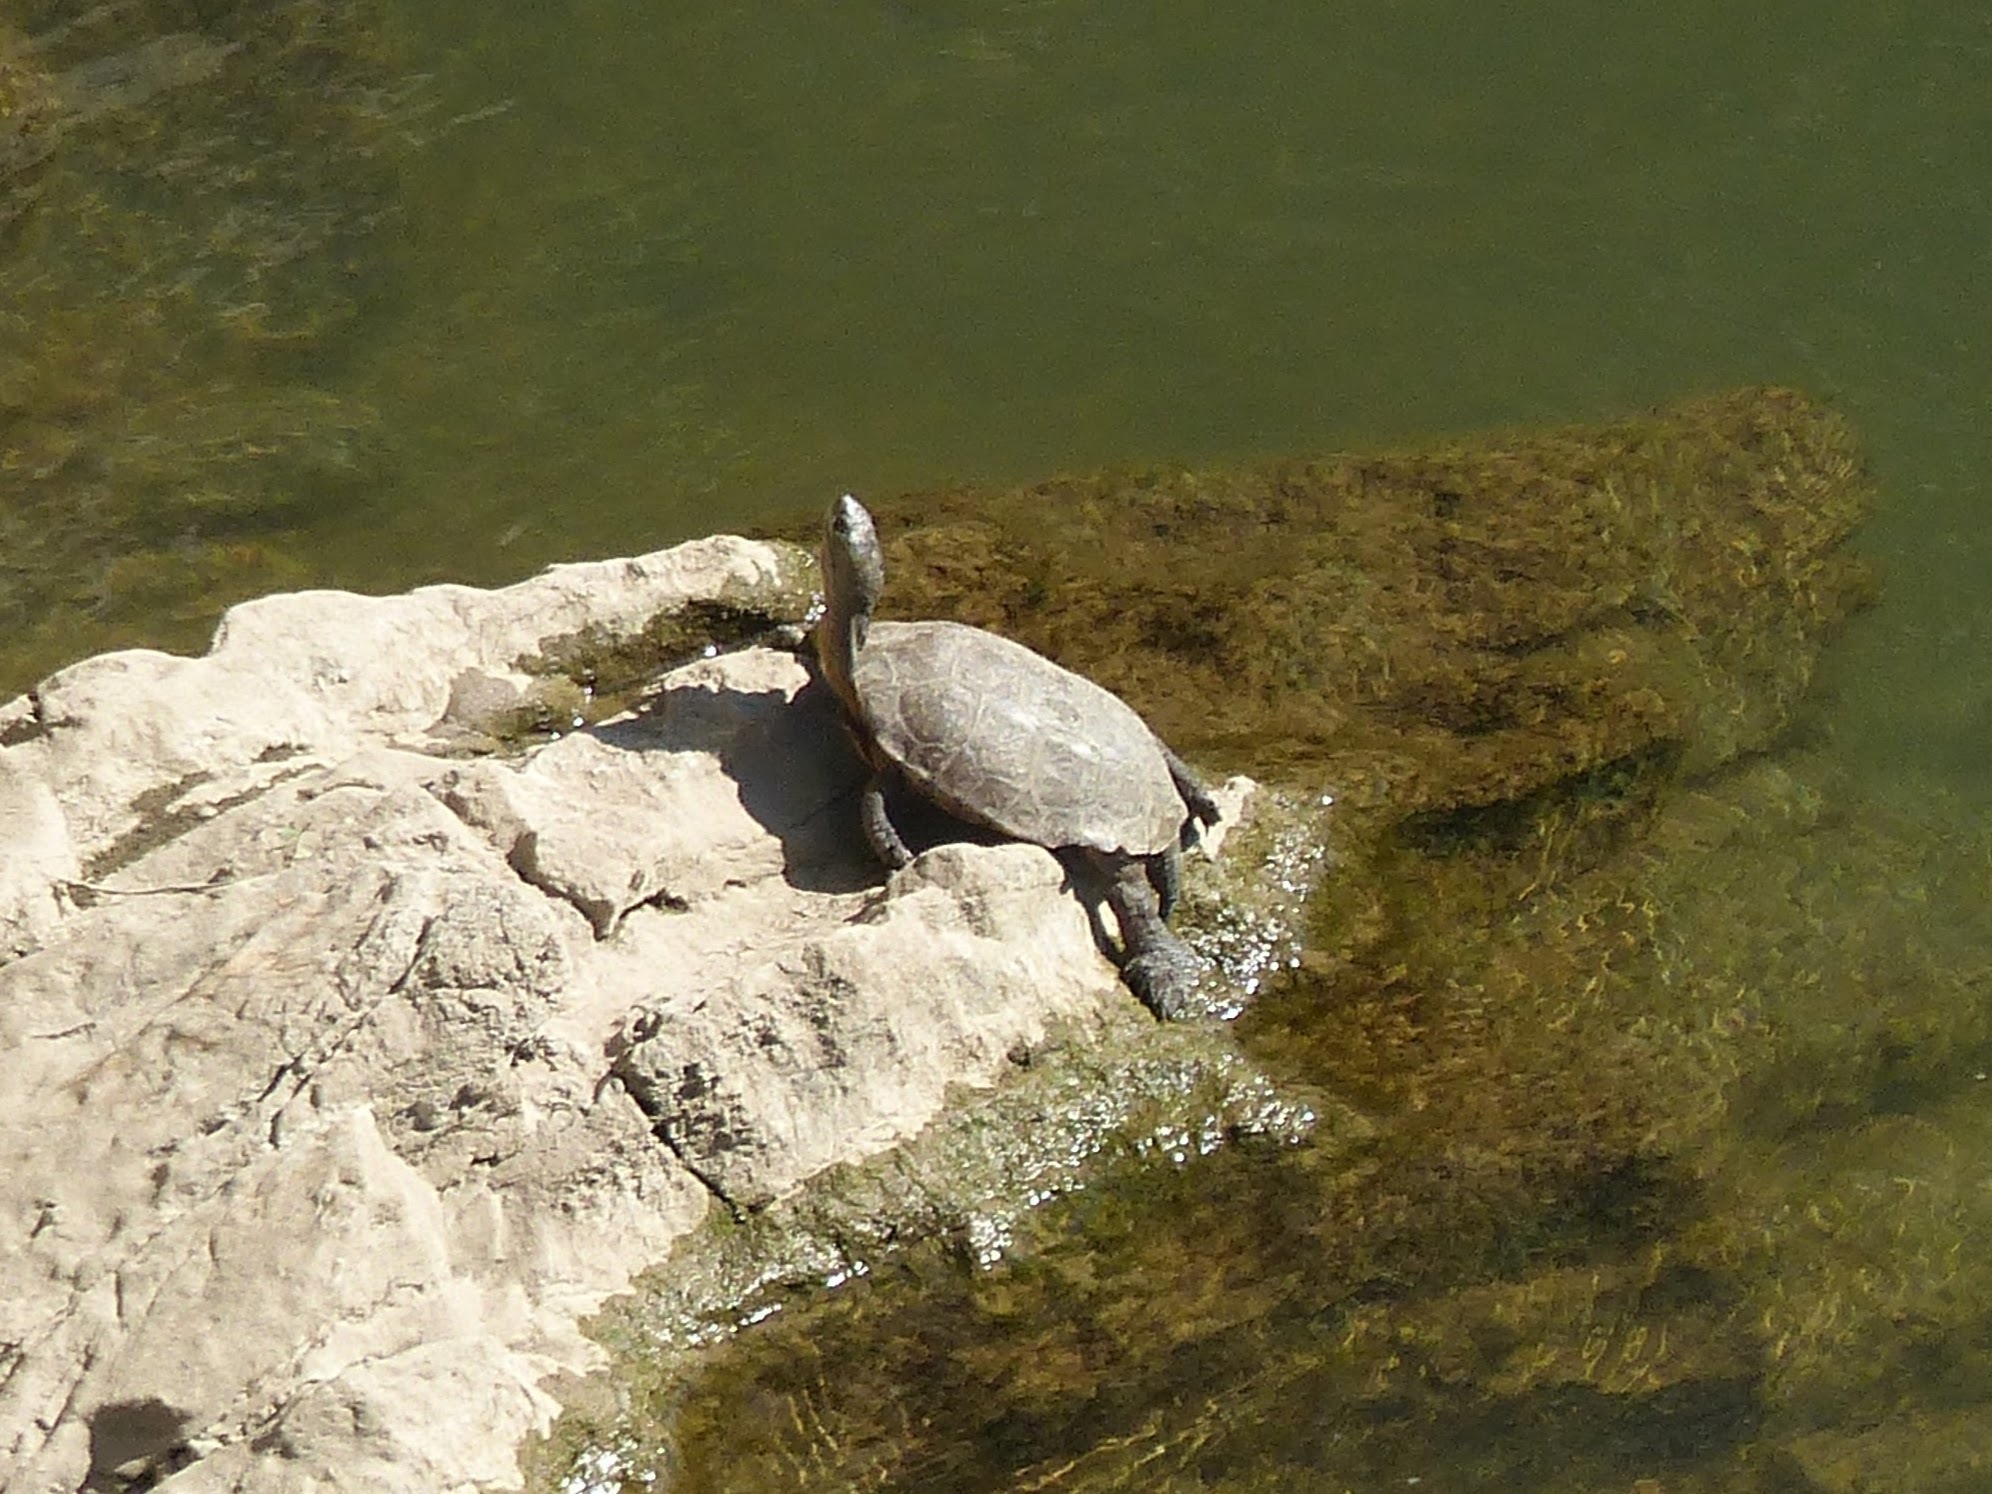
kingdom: Animalia
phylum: Chordata
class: Testudines
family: Geoemydidae
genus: Mauremys
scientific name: Mauremys leprosa
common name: Mediterranean pond turtle
